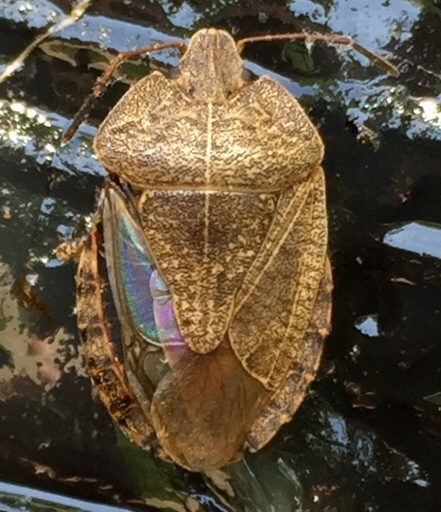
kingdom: Animalia
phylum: Arthropoda
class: Insecta
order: Hemiptera
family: Pentatomidae
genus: Menecles
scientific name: Menecles insertus
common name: Elf shoe stink bug
